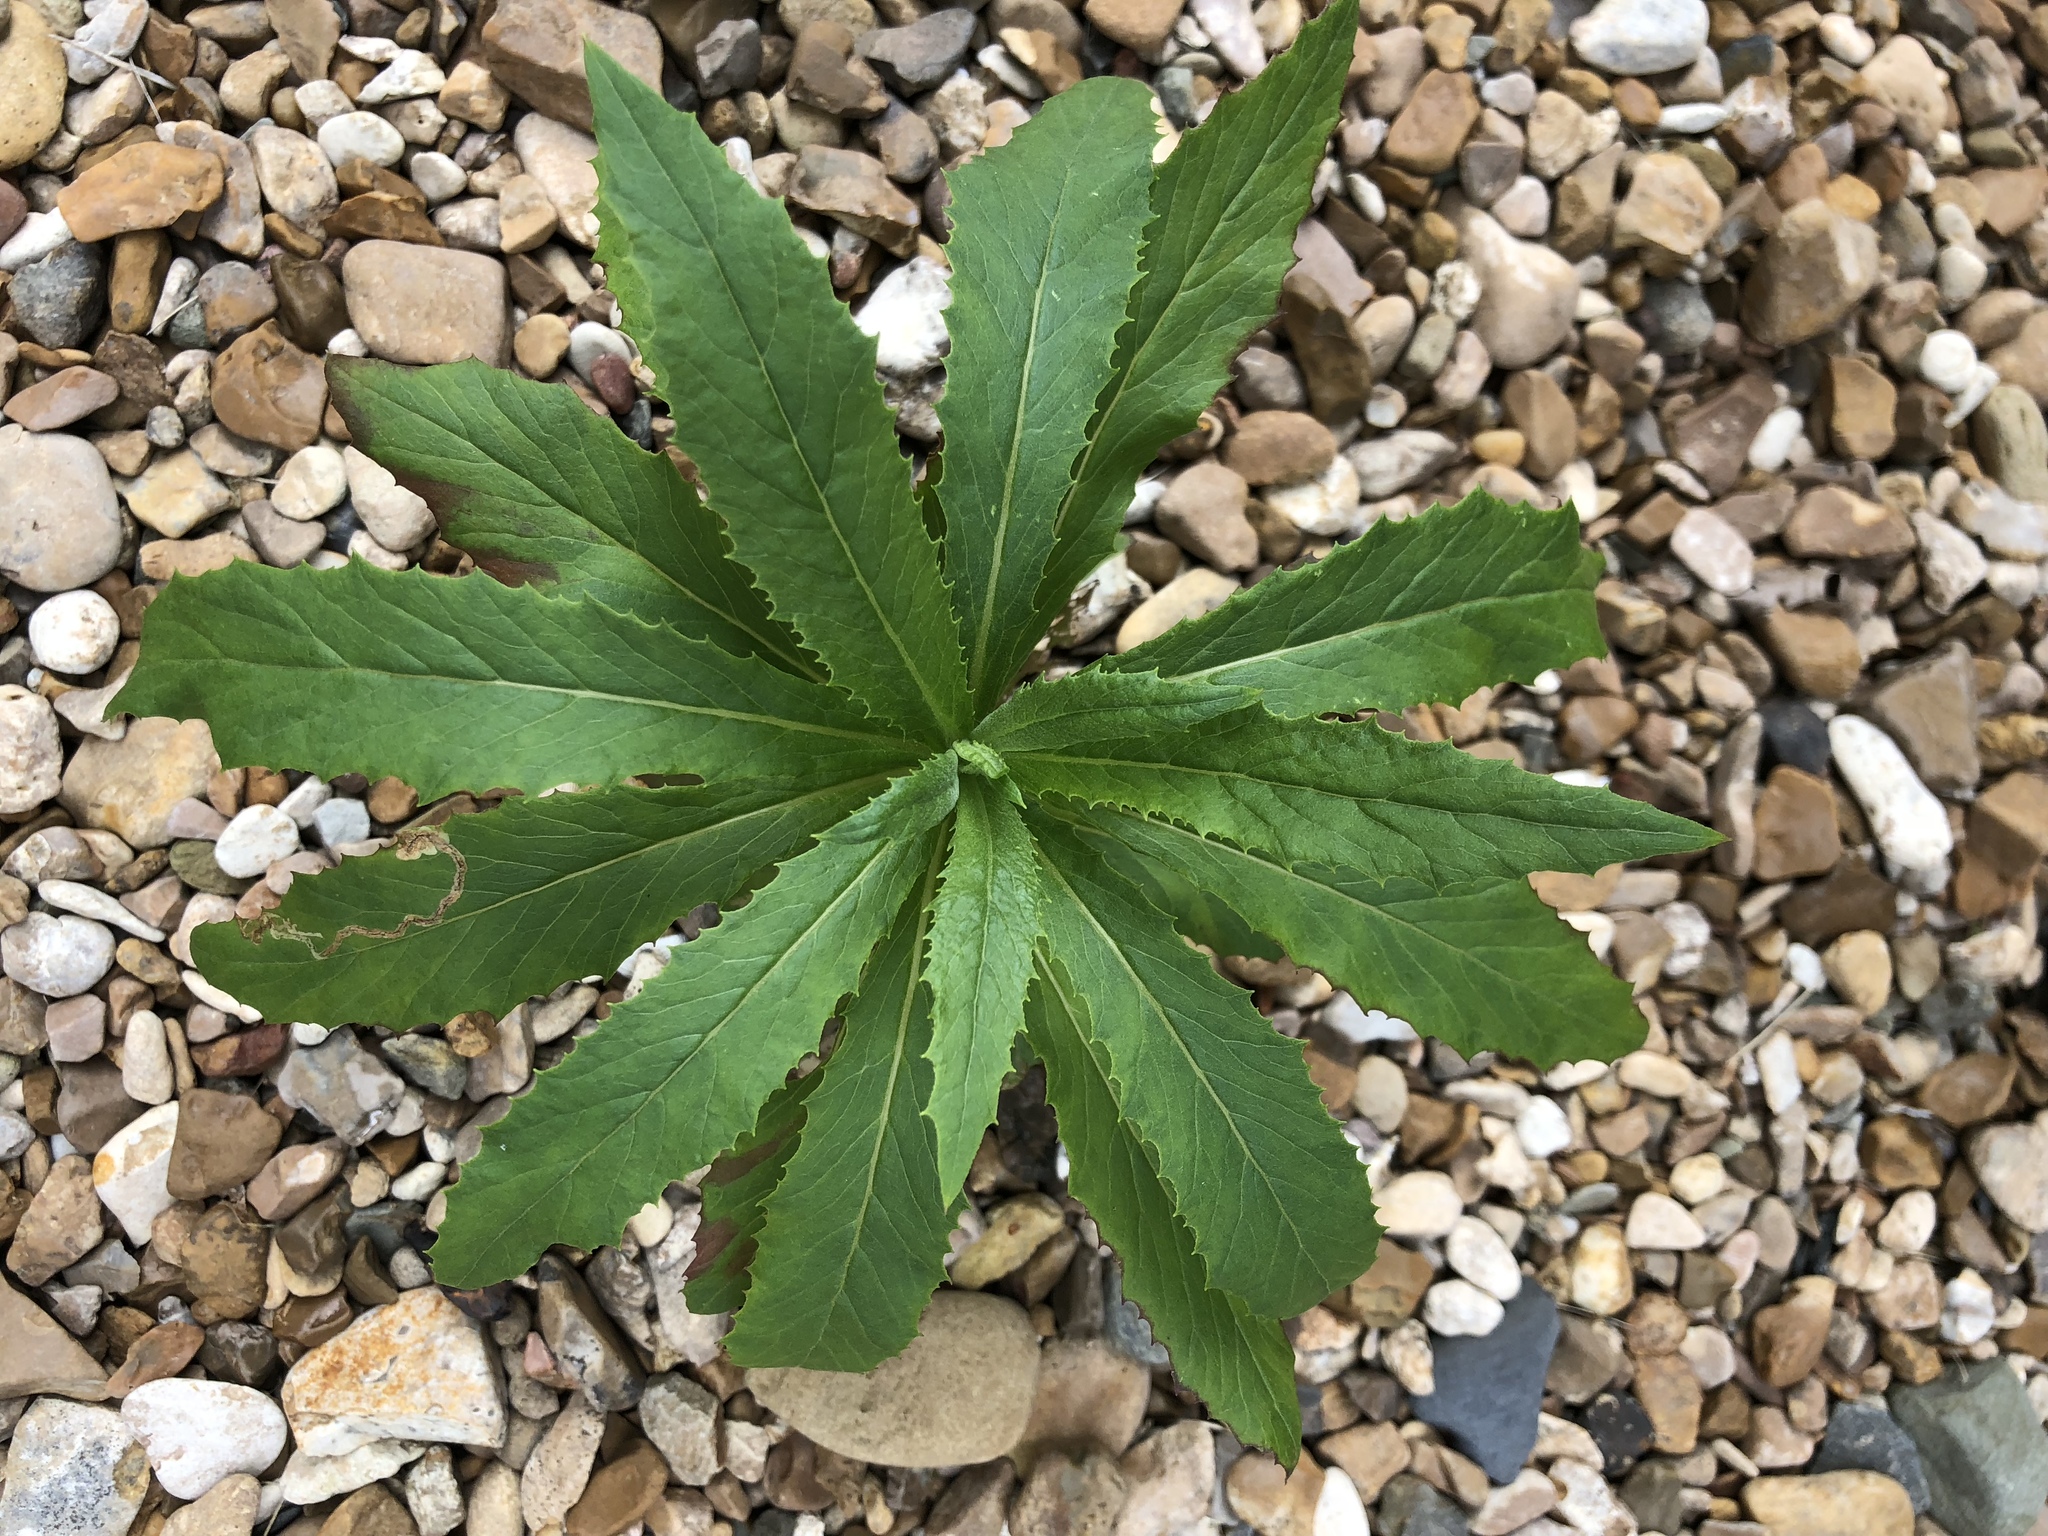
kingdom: Plantae
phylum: Tracheophyta
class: Magnoliopsida
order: Asterales
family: Asteraceae
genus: Erechtites
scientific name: Erechtites hieraciifolius
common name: American burnweed
